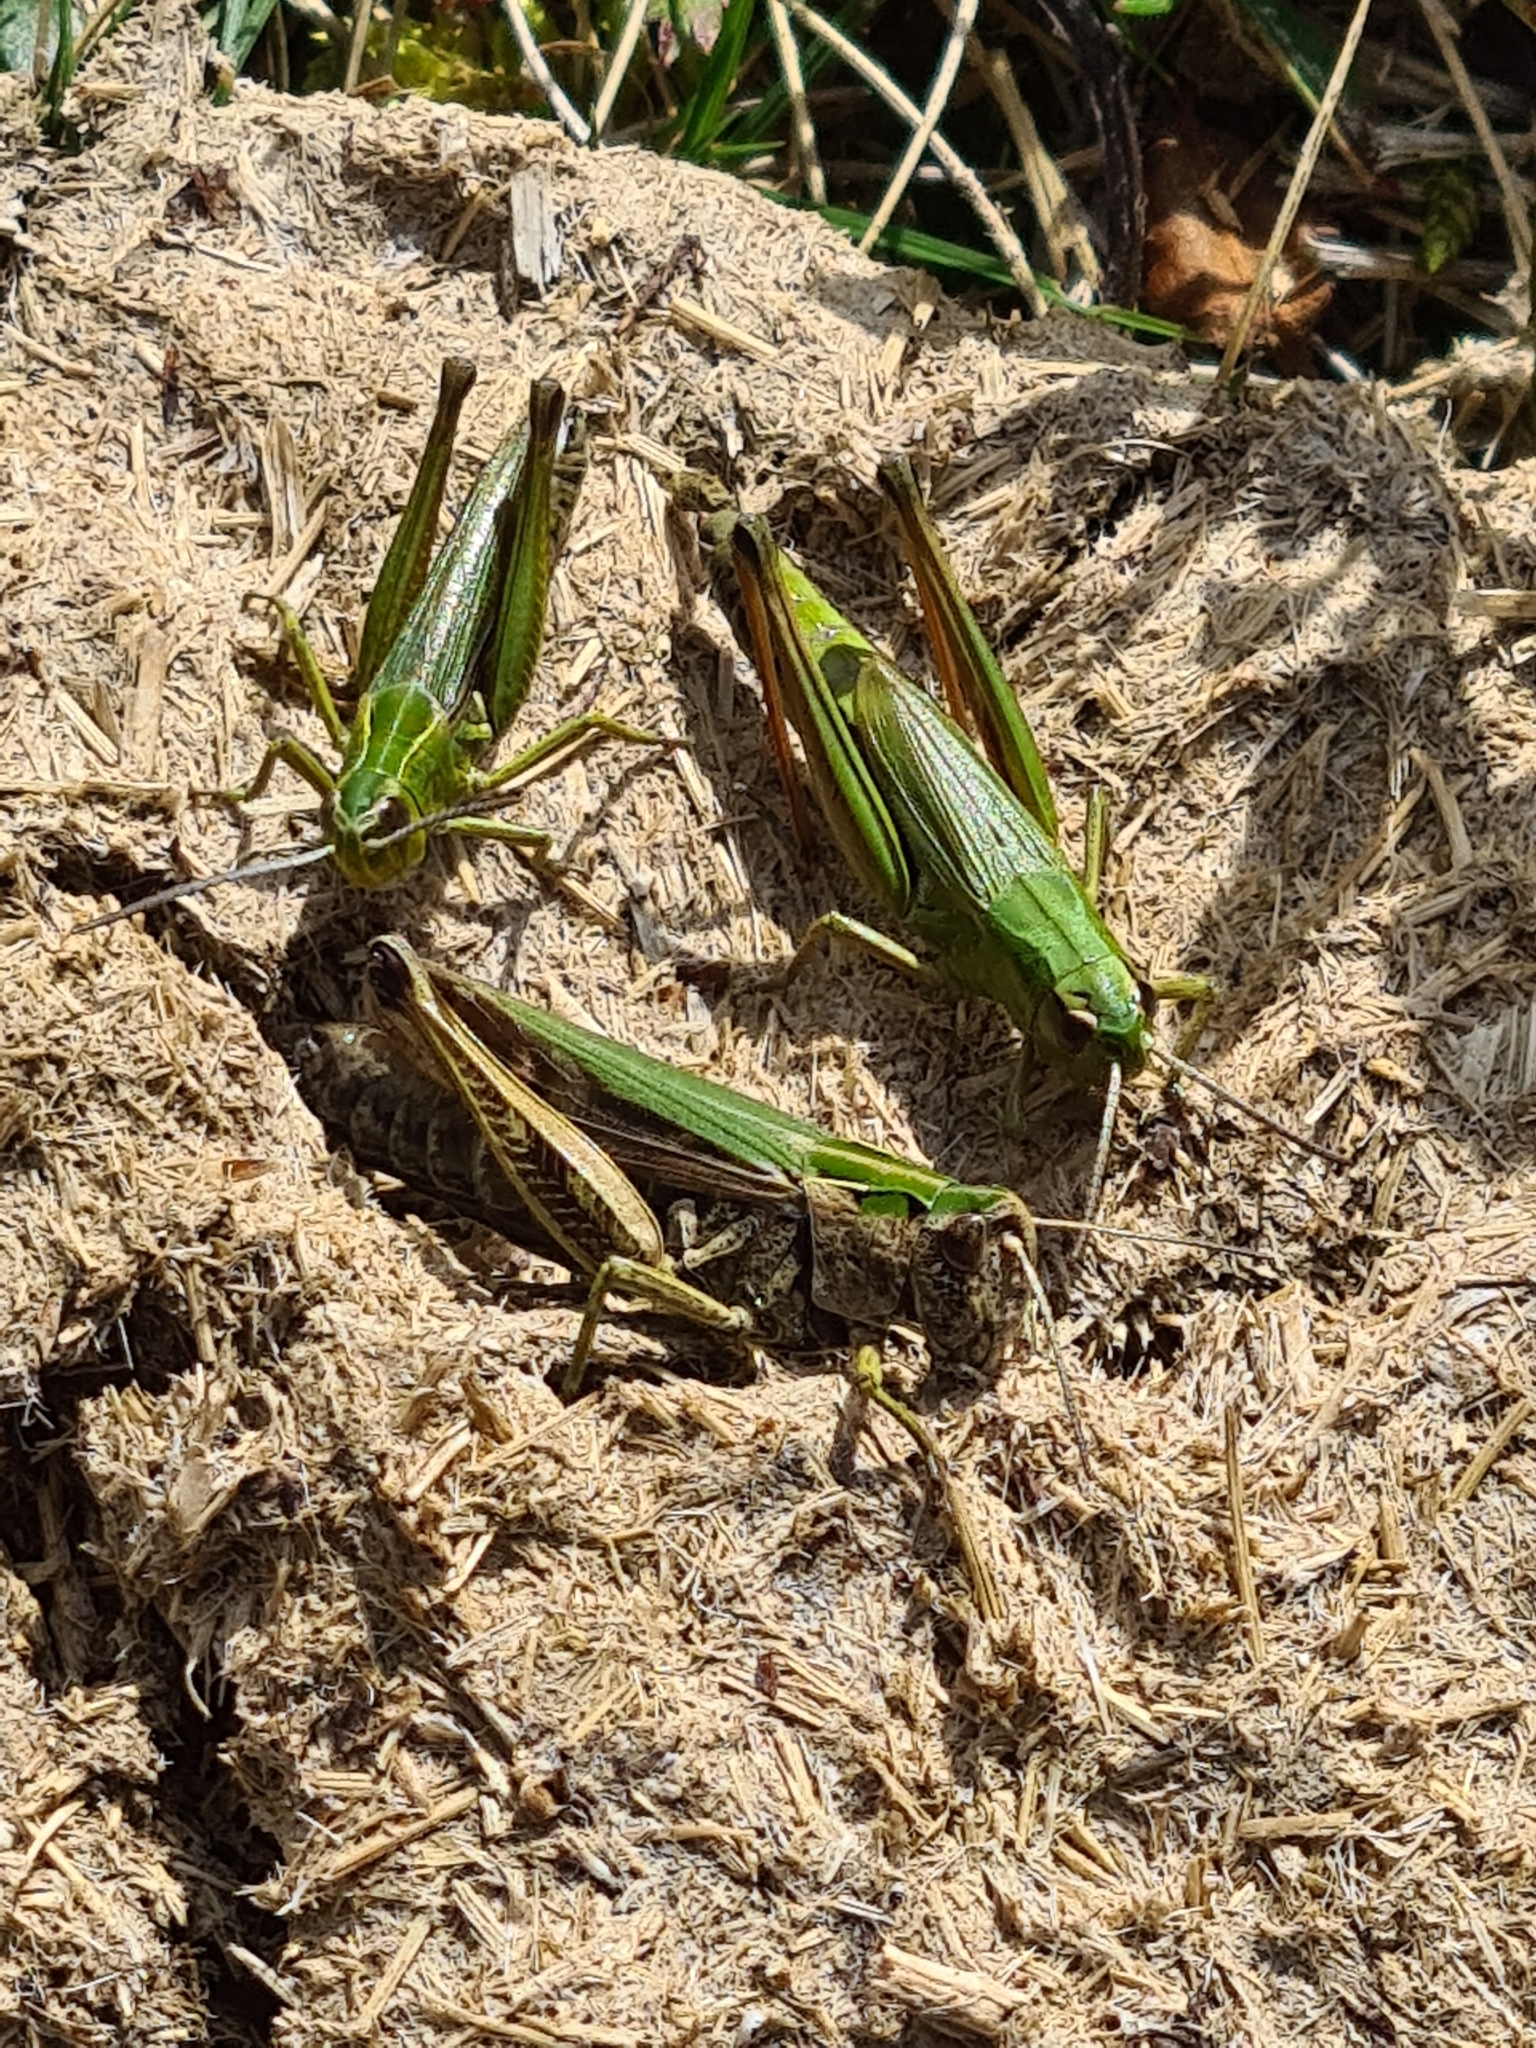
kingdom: Animalia
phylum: Arthropoda
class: Insecta
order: Orthoptera
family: Acrididae
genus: Omocestus
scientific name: Omocestus viridulus
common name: Common green grasshopper
